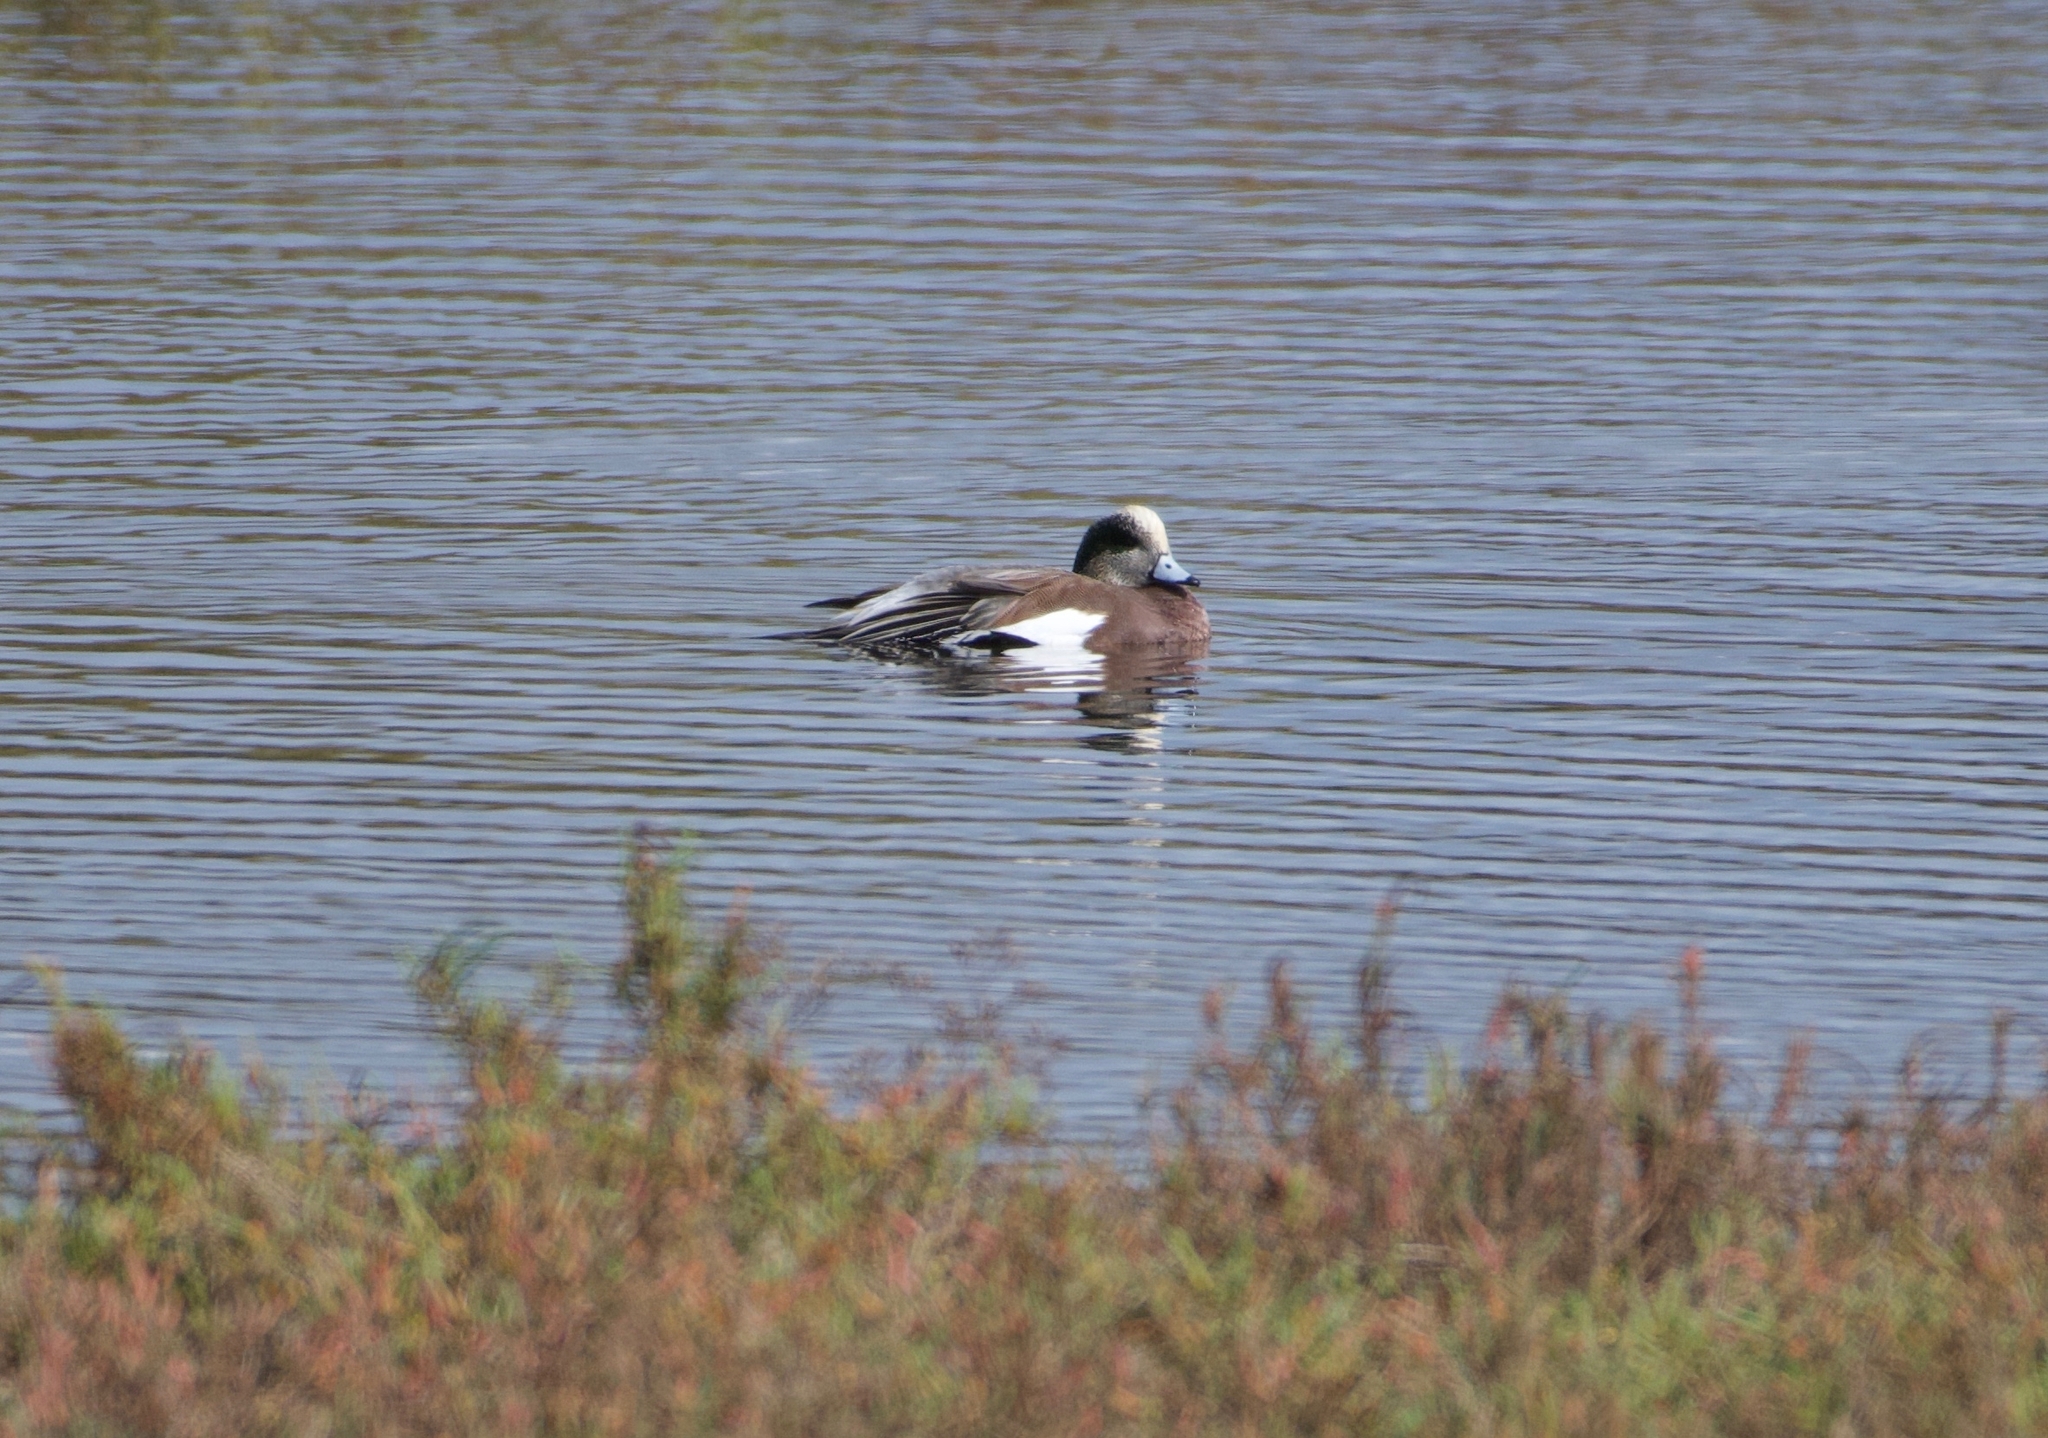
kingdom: Animalia
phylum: Chordata
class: Aves
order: Anseriformes
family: Anatidae
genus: Mareca
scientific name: Mareca americana
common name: American wigeon
